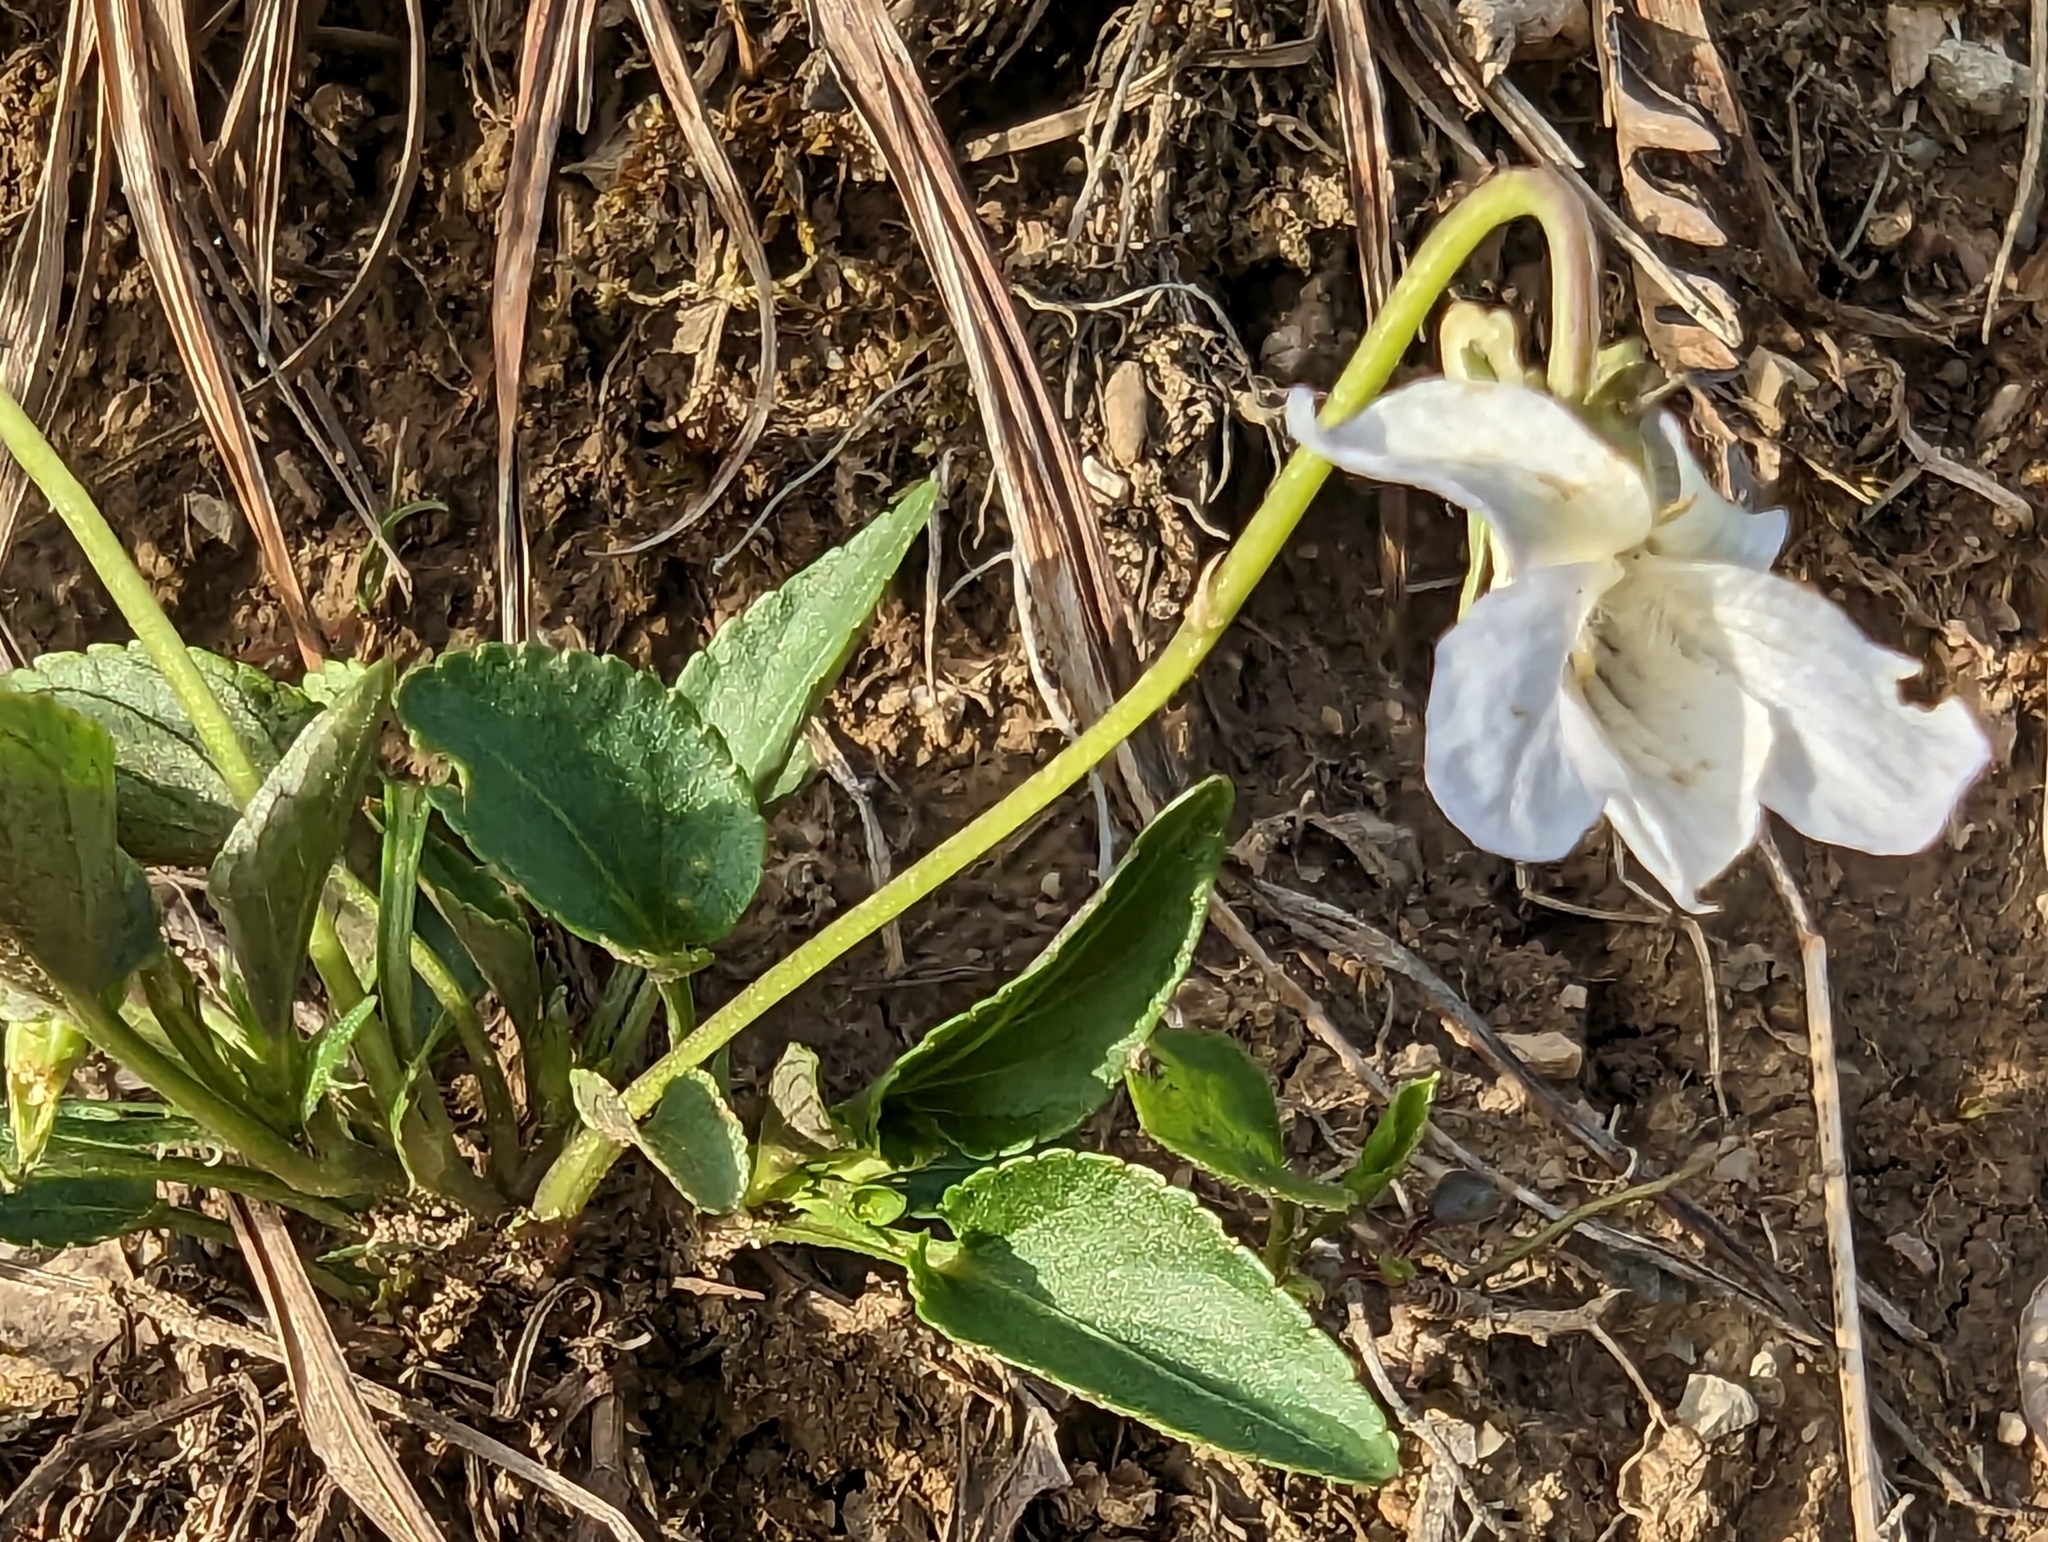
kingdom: Plantae
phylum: Tracheophyta
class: Magnoliopsida
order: Malpighiales
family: Violaceae
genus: Viola
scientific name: Viola canina
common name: Heath dog-violet
